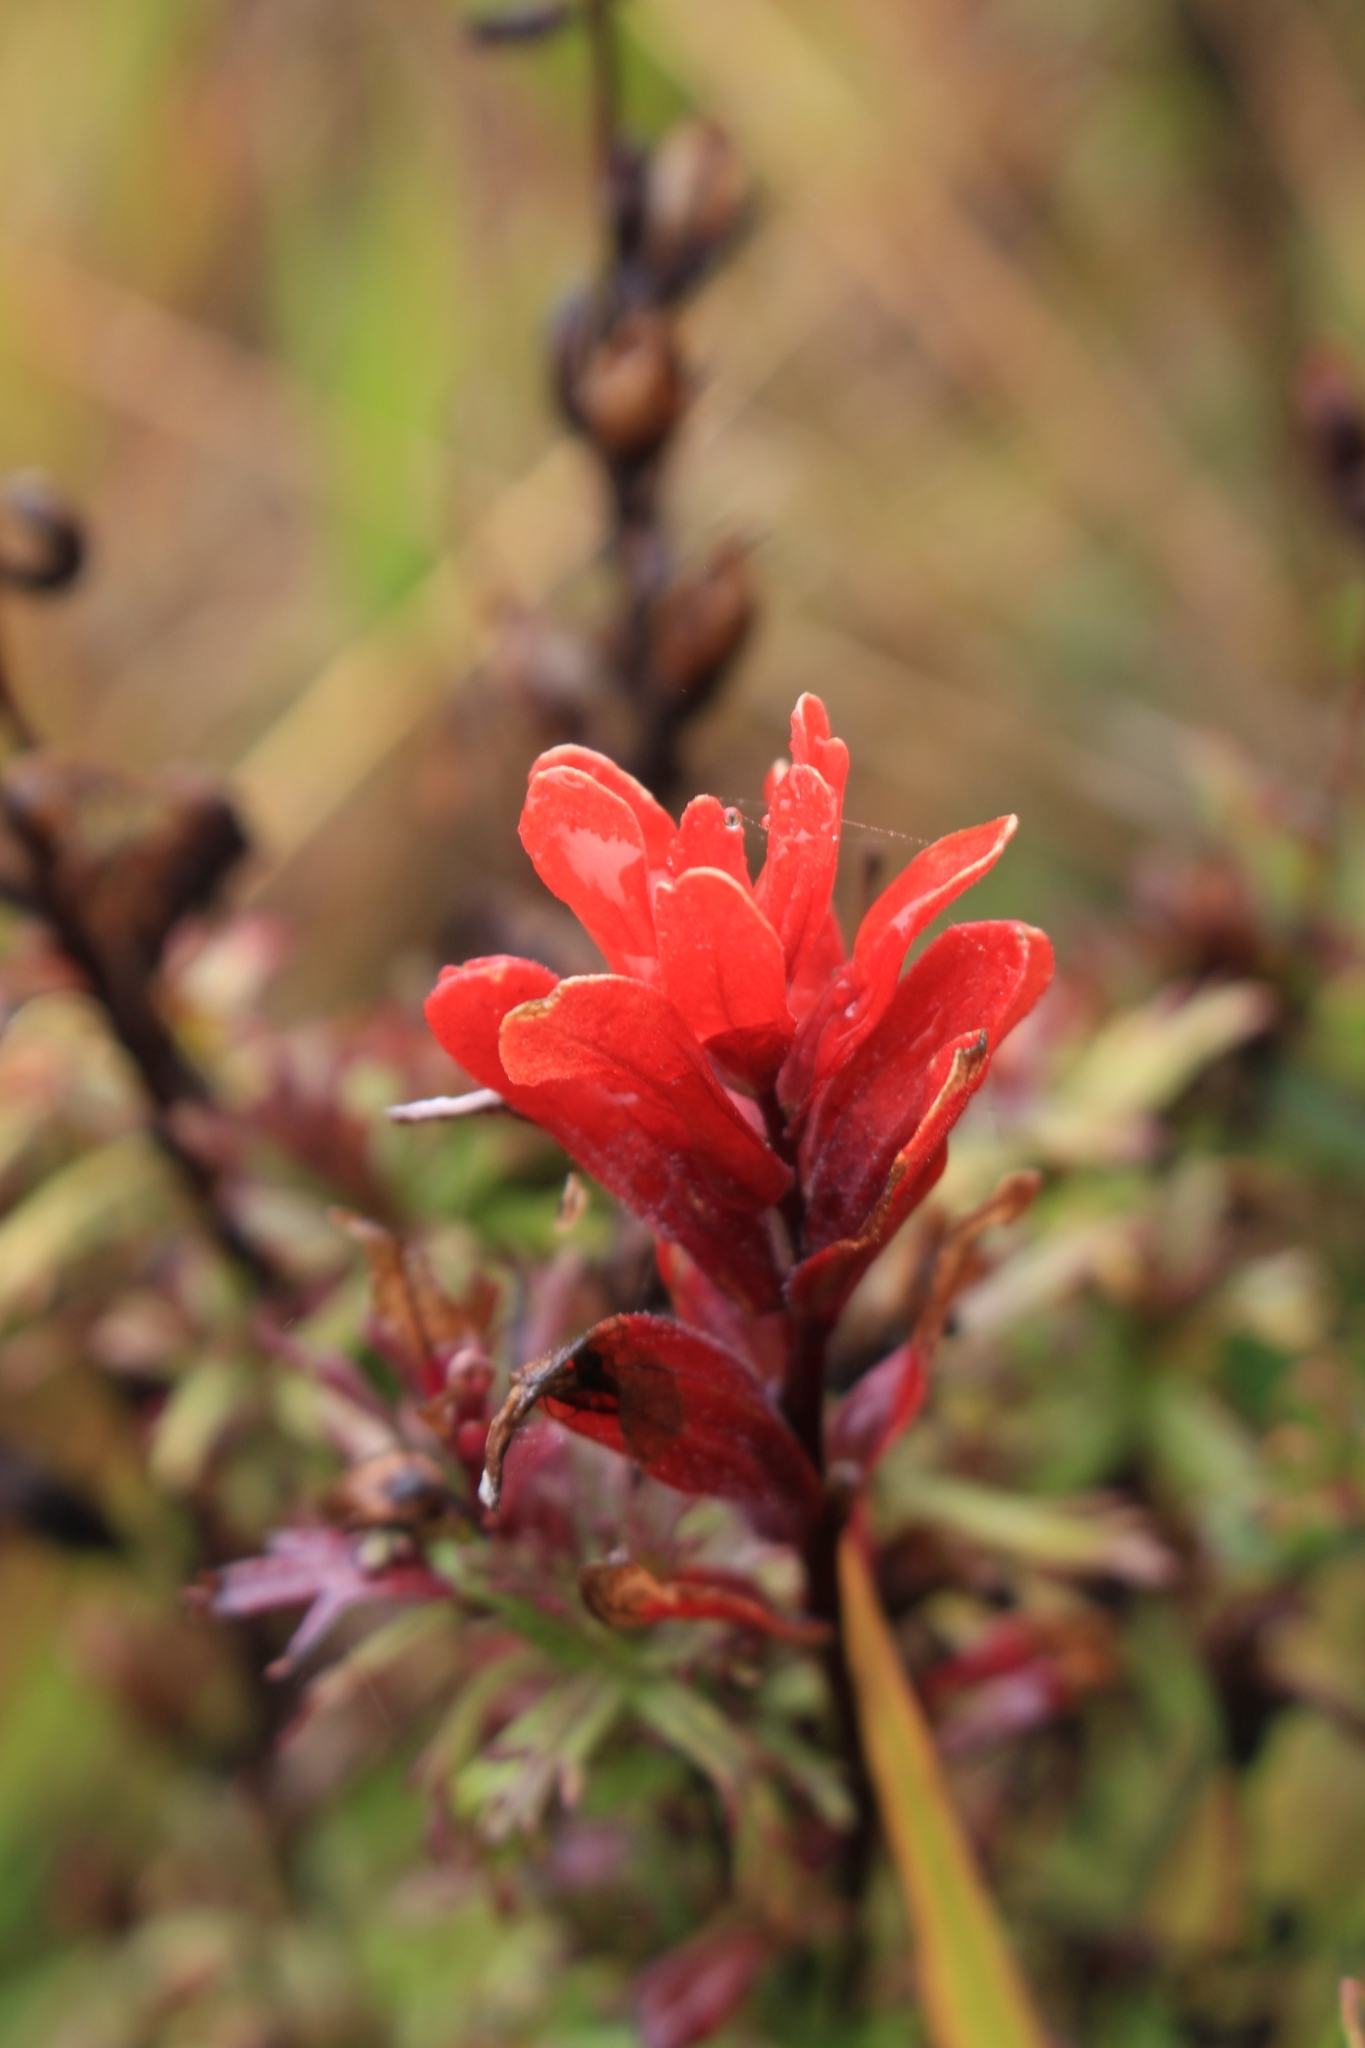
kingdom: Plantae
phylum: Tracheophyta
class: Magnoliopsida
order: Lamiales
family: Orobanchaceae
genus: Castilleja
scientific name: Castilleja irasuensis
